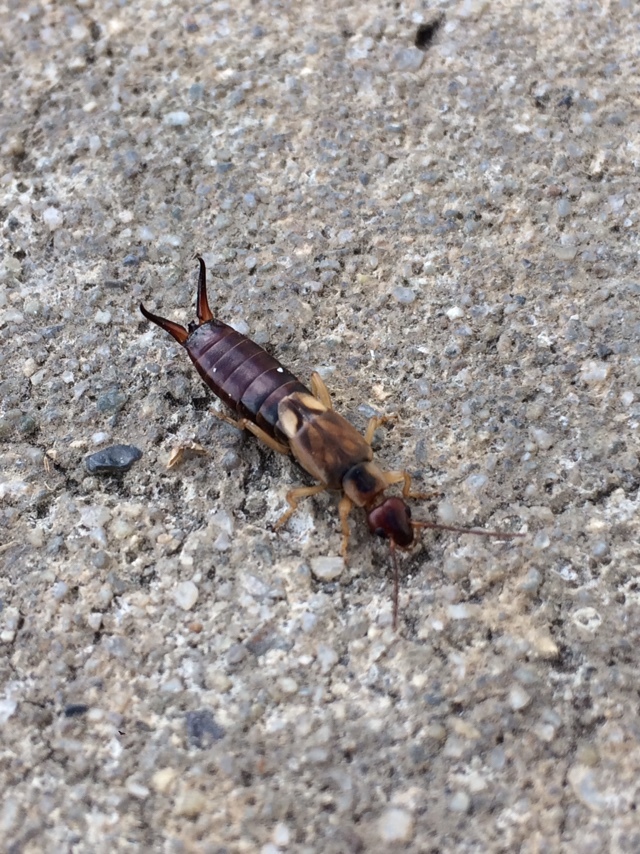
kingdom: Animalia
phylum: Arthropoda
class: Insecta
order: Dermaptera
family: Forficulidae
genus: Forficula
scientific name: Forficula
